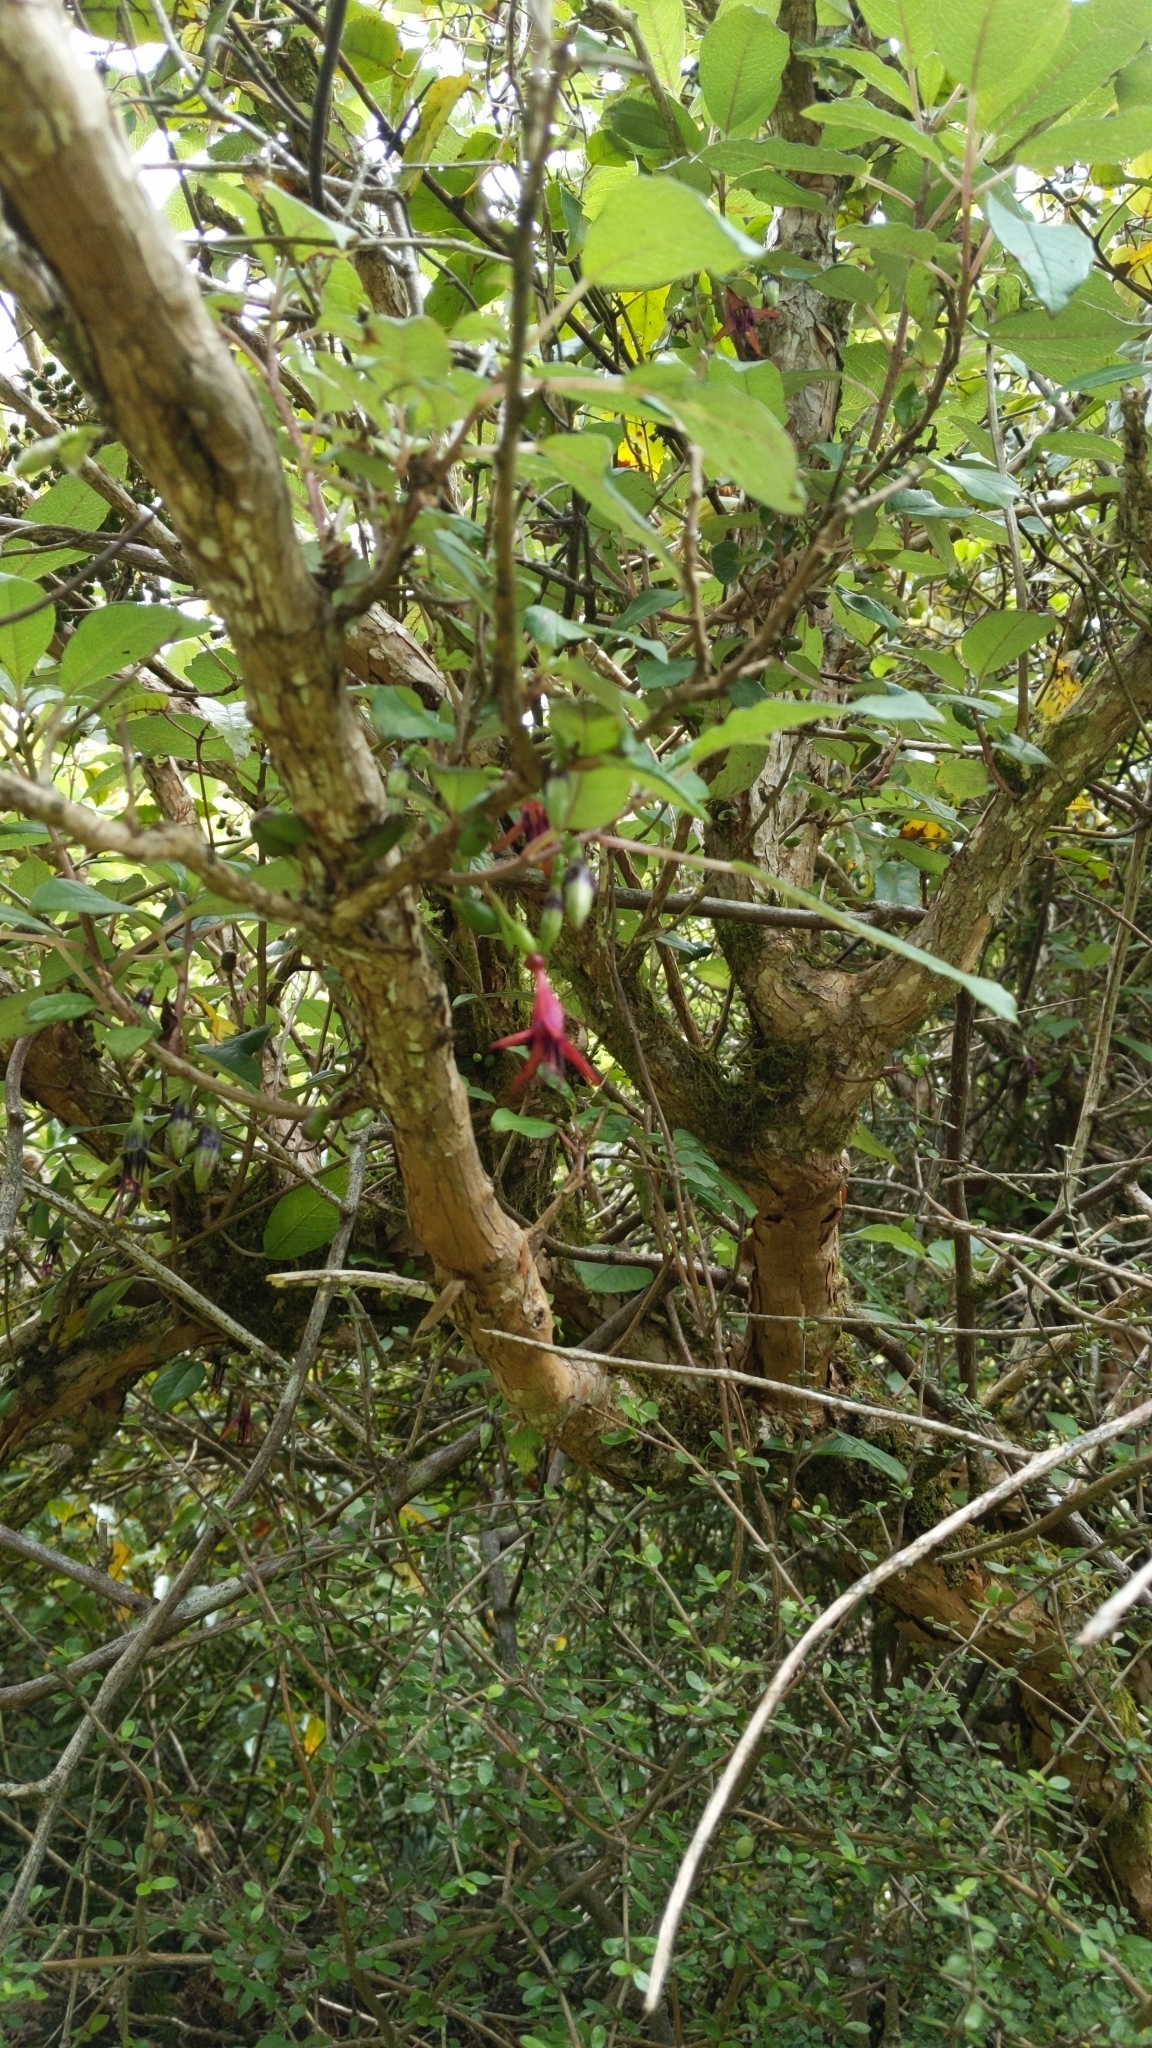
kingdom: Plantae
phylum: Tracheophyta
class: Magnoliopsida
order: Myrtales
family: Onagraceae
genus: Fuchsia
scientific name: Fuchsia excorticata
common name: Tree fuchsia
